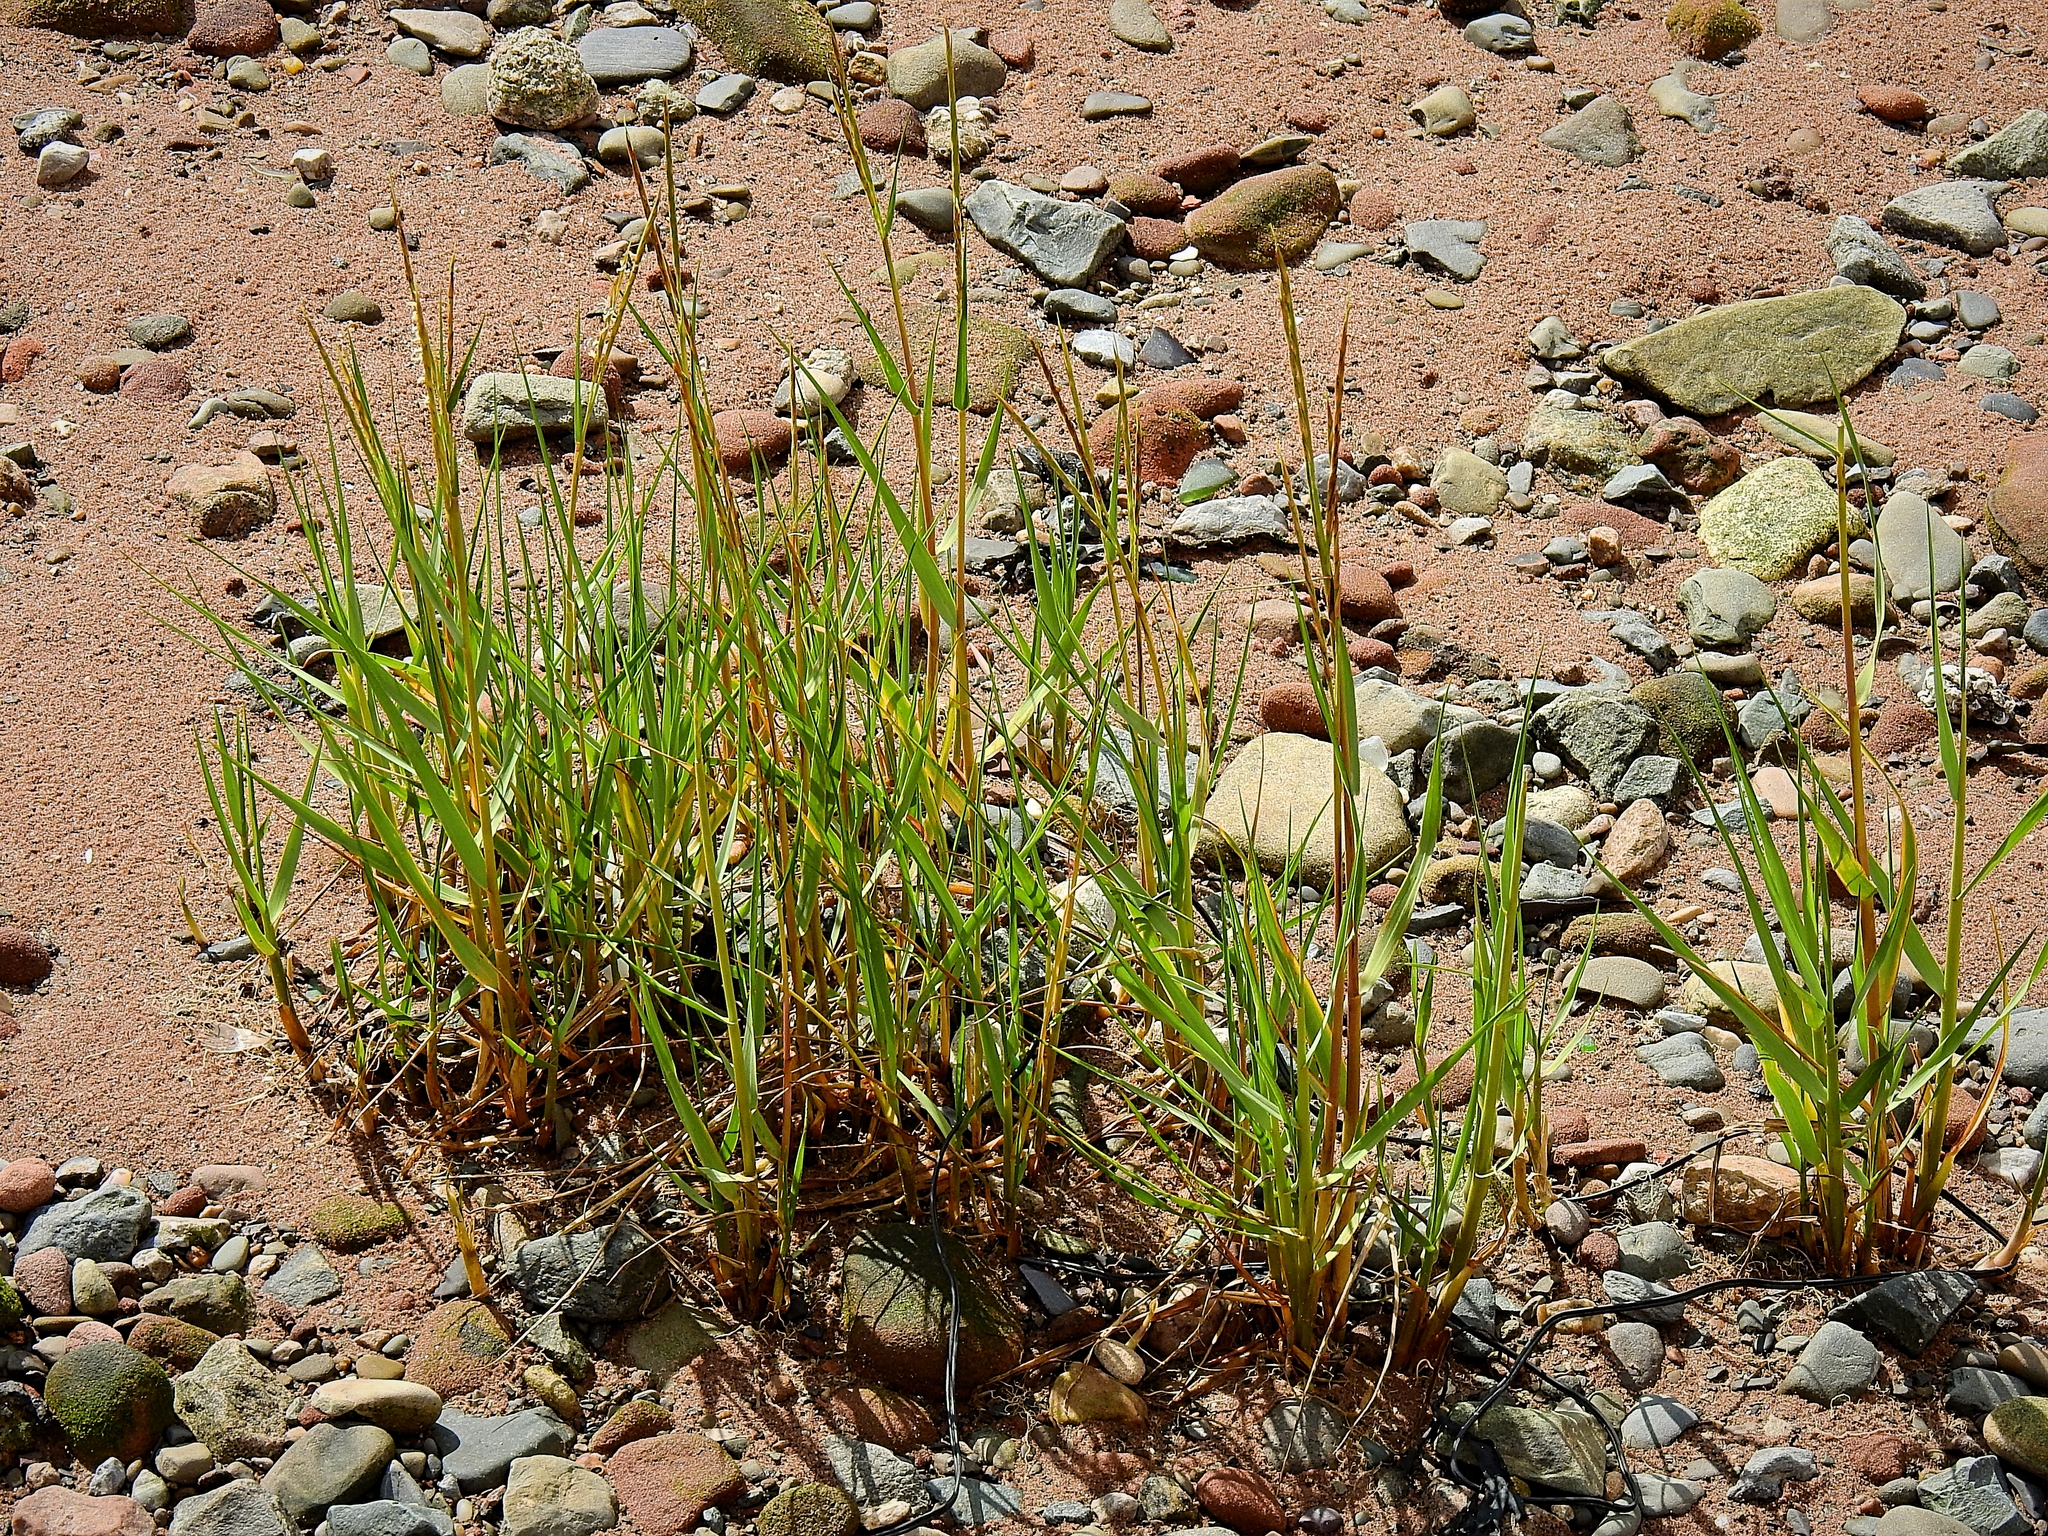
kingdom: Plantae
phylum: Tracheophyta
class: Liliopsida
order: Poales
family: Poaceae
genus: Sporobolus
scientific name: Sporobolus anglicus
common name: English cordgrass
